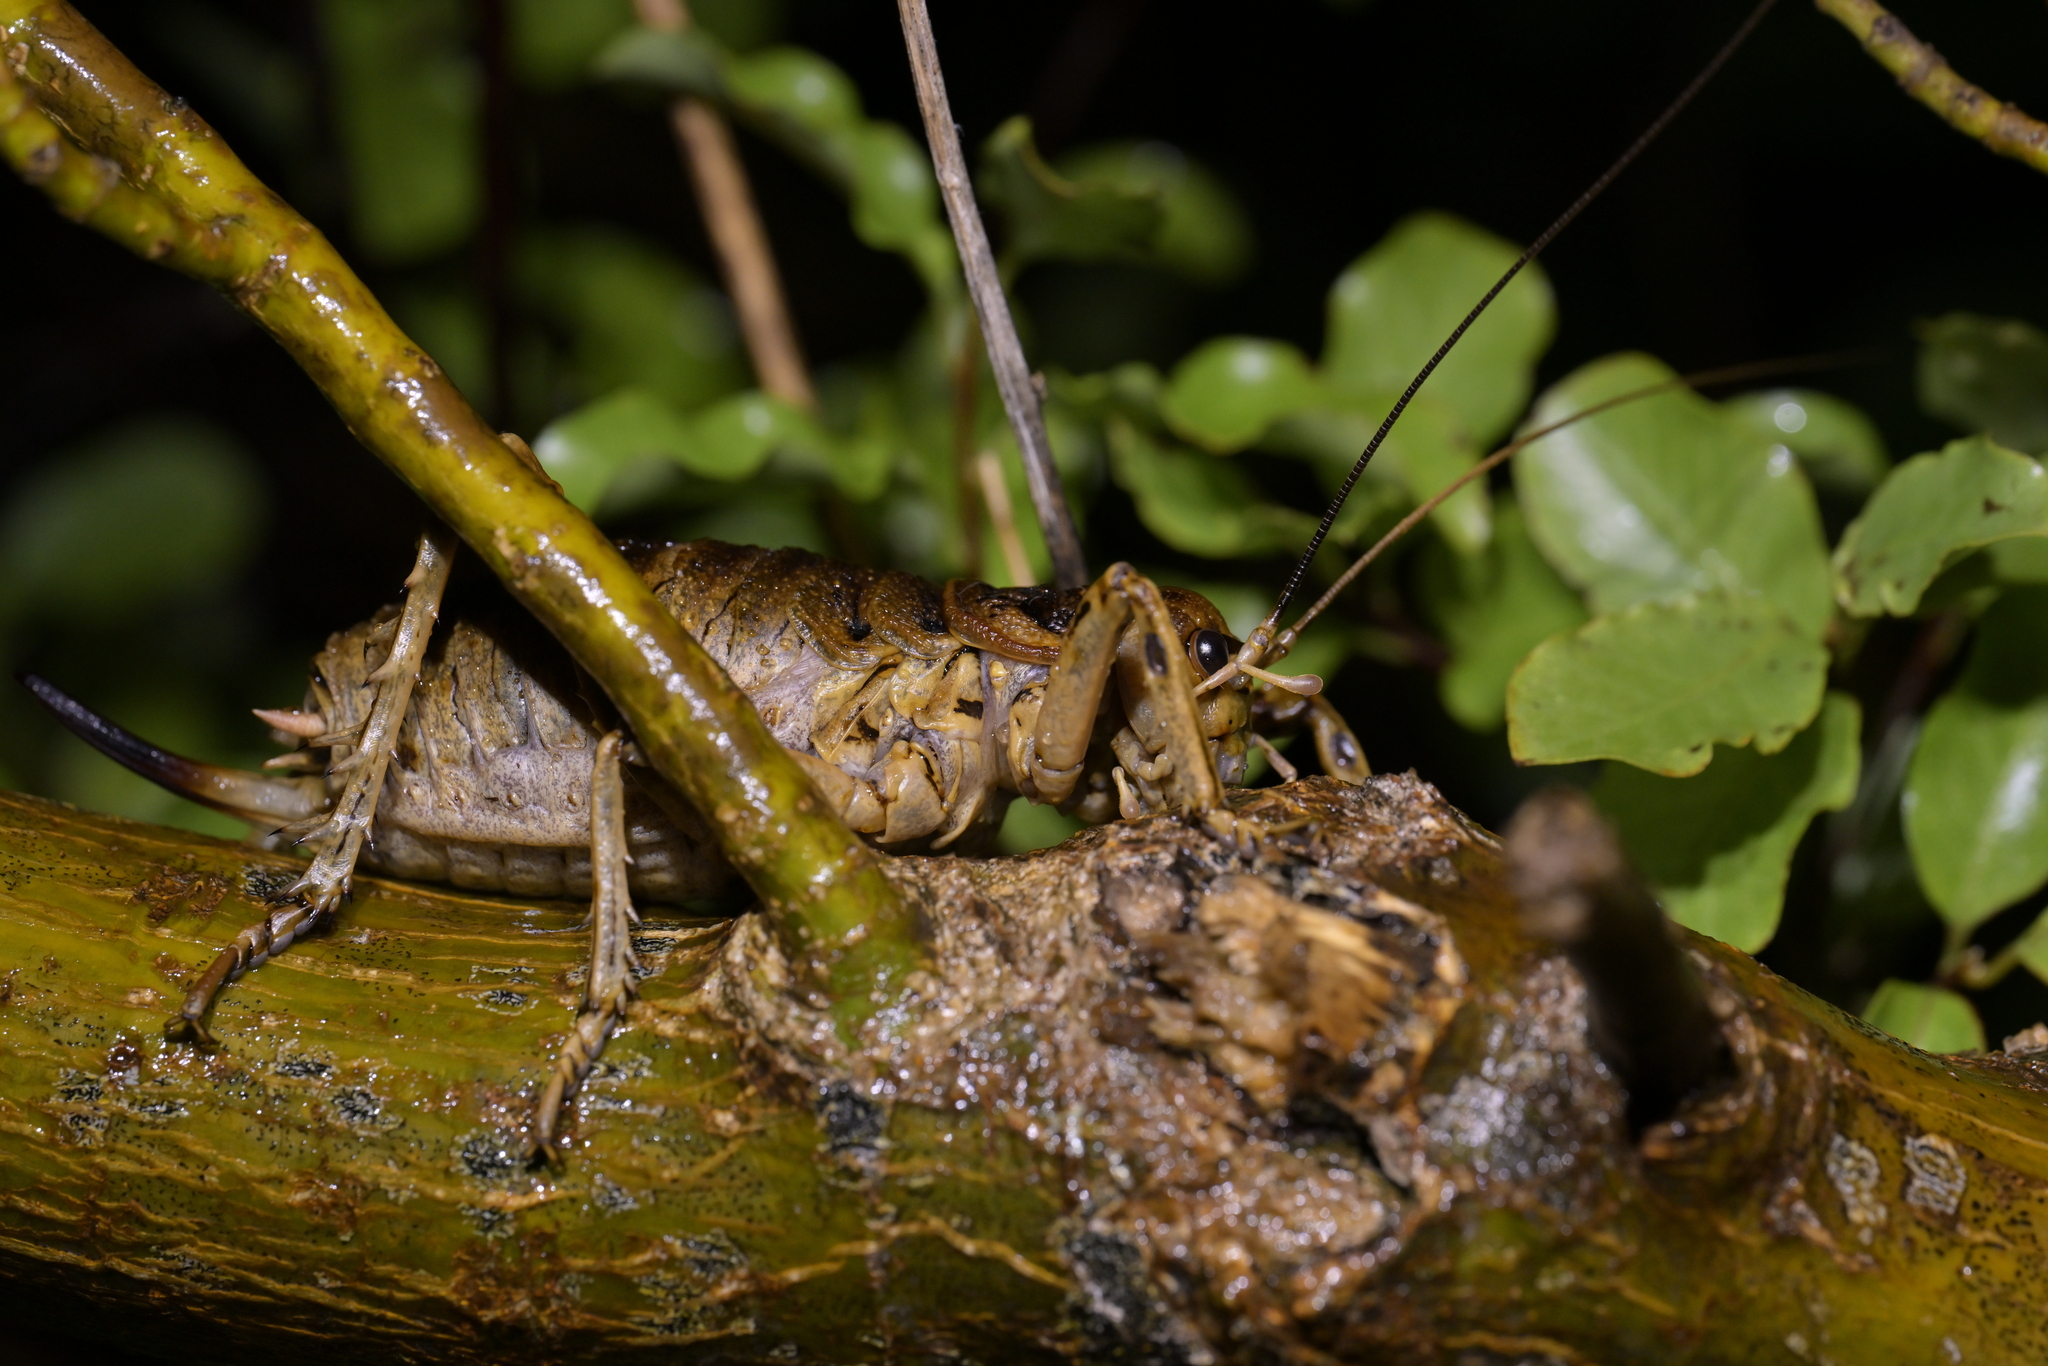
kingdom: Animalia
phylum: Arthropoda
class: Insecta
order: Orthoptera
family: Anostostomatidae
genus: Deinacrida
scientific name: Deinacrida rugosa
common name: Stephens island weta
